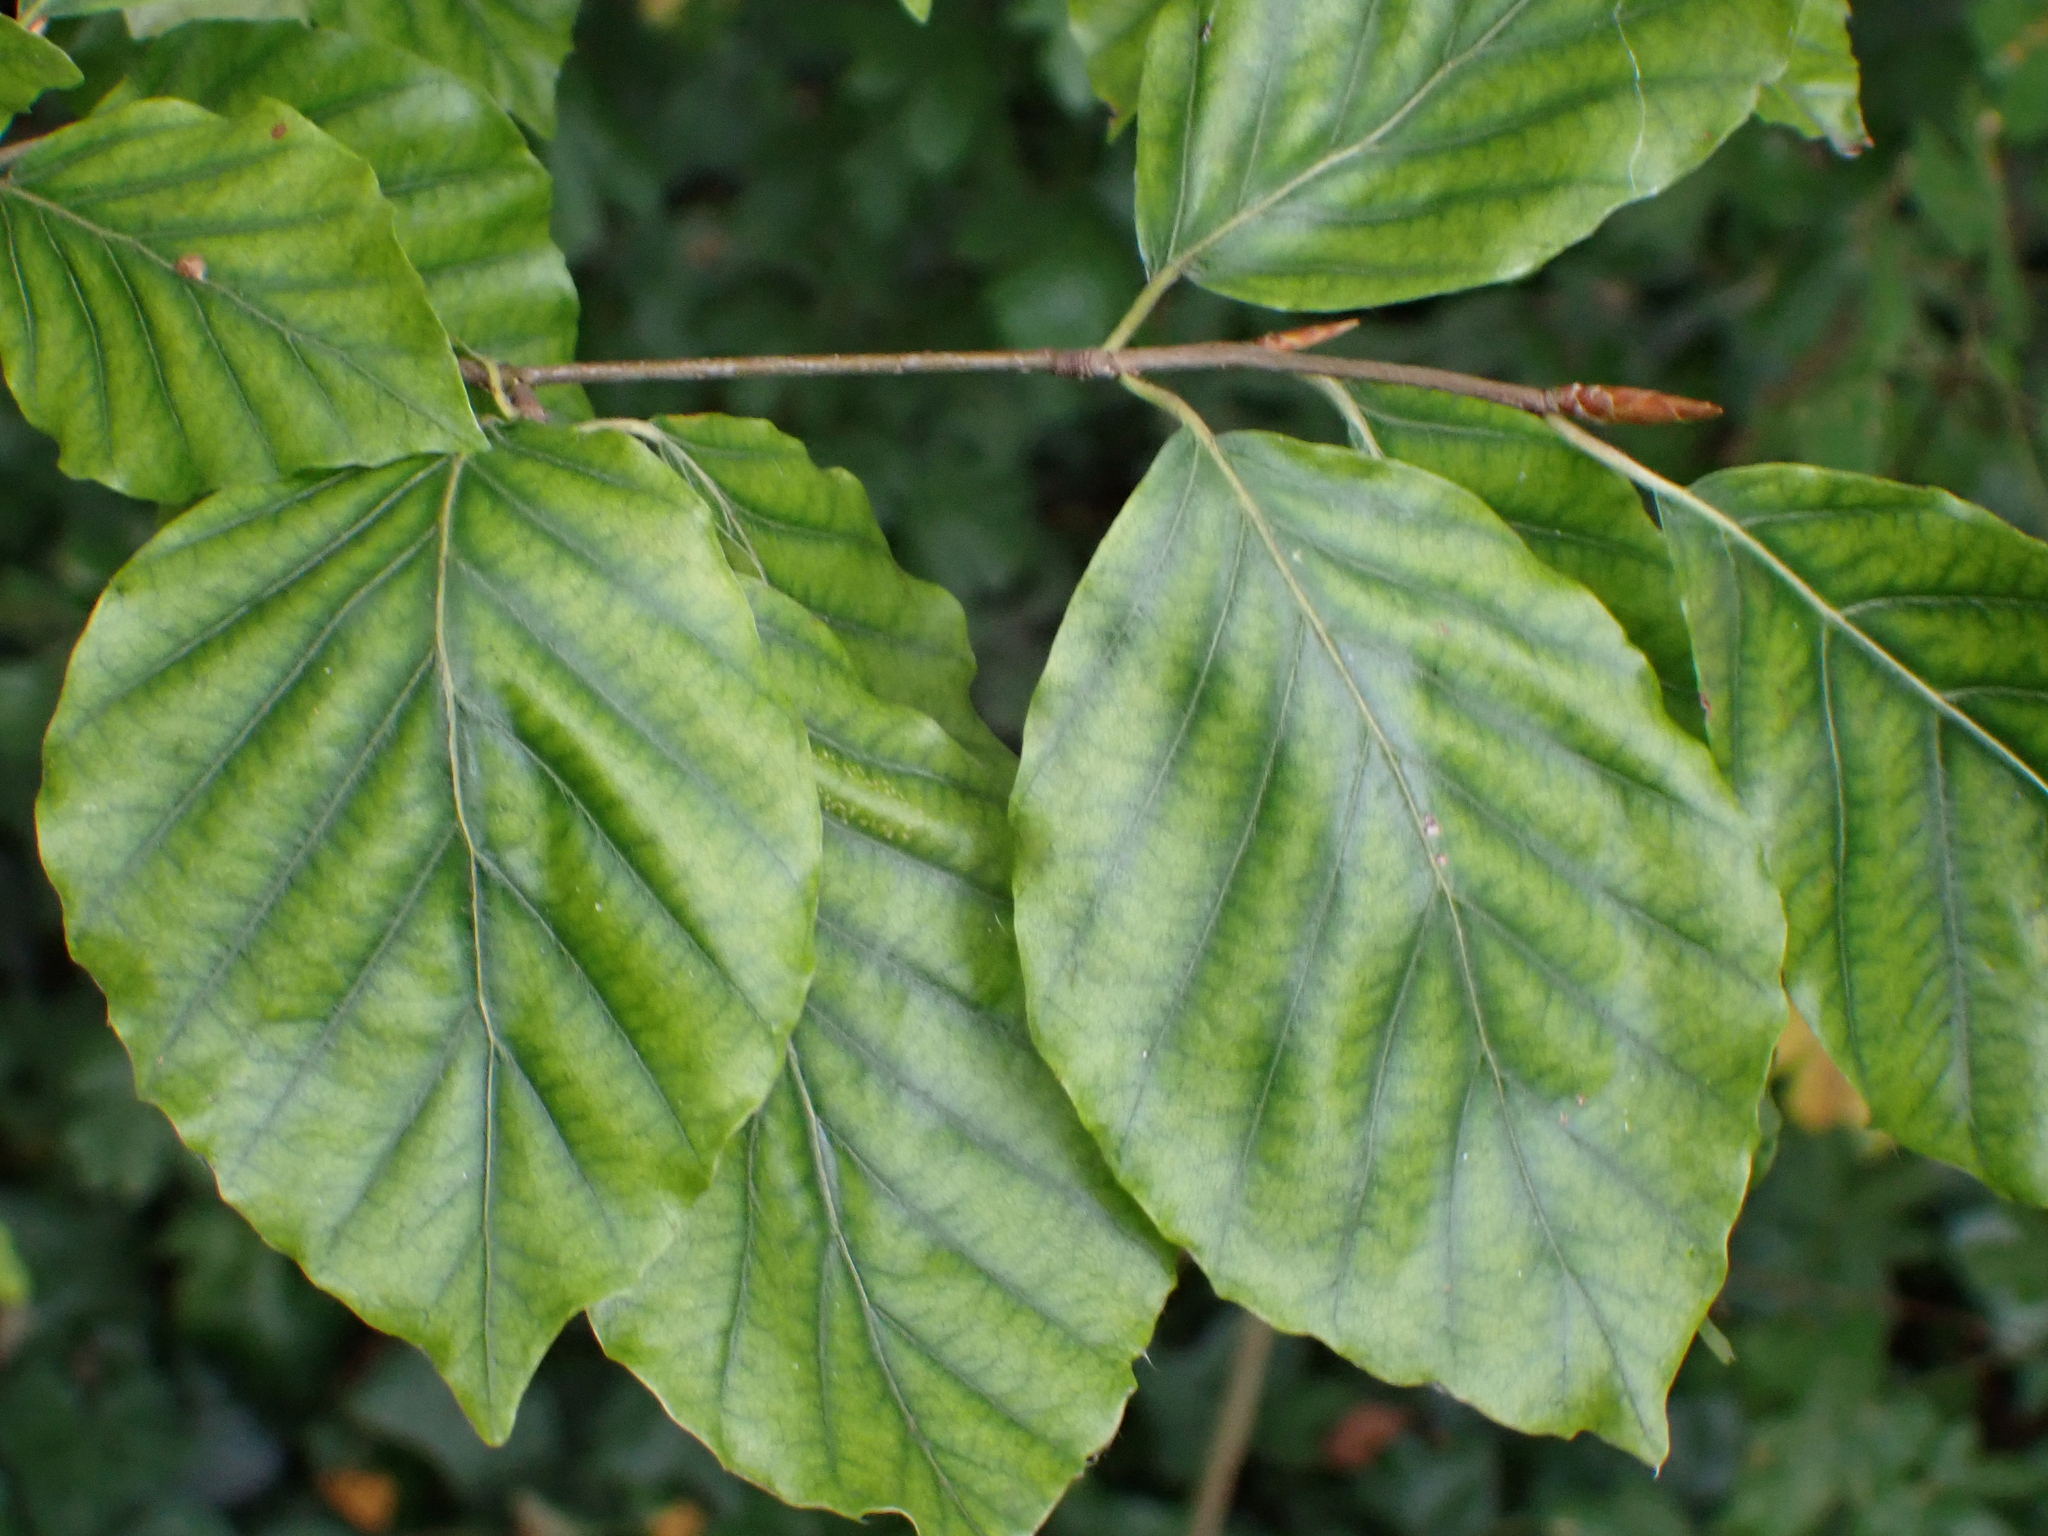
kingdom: Plantae
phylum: Tracheophyta
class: Magnoliopsida
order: Fagales
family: Fagaceae
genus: Fagus
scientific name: Fagus sylvatica
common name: Beech
